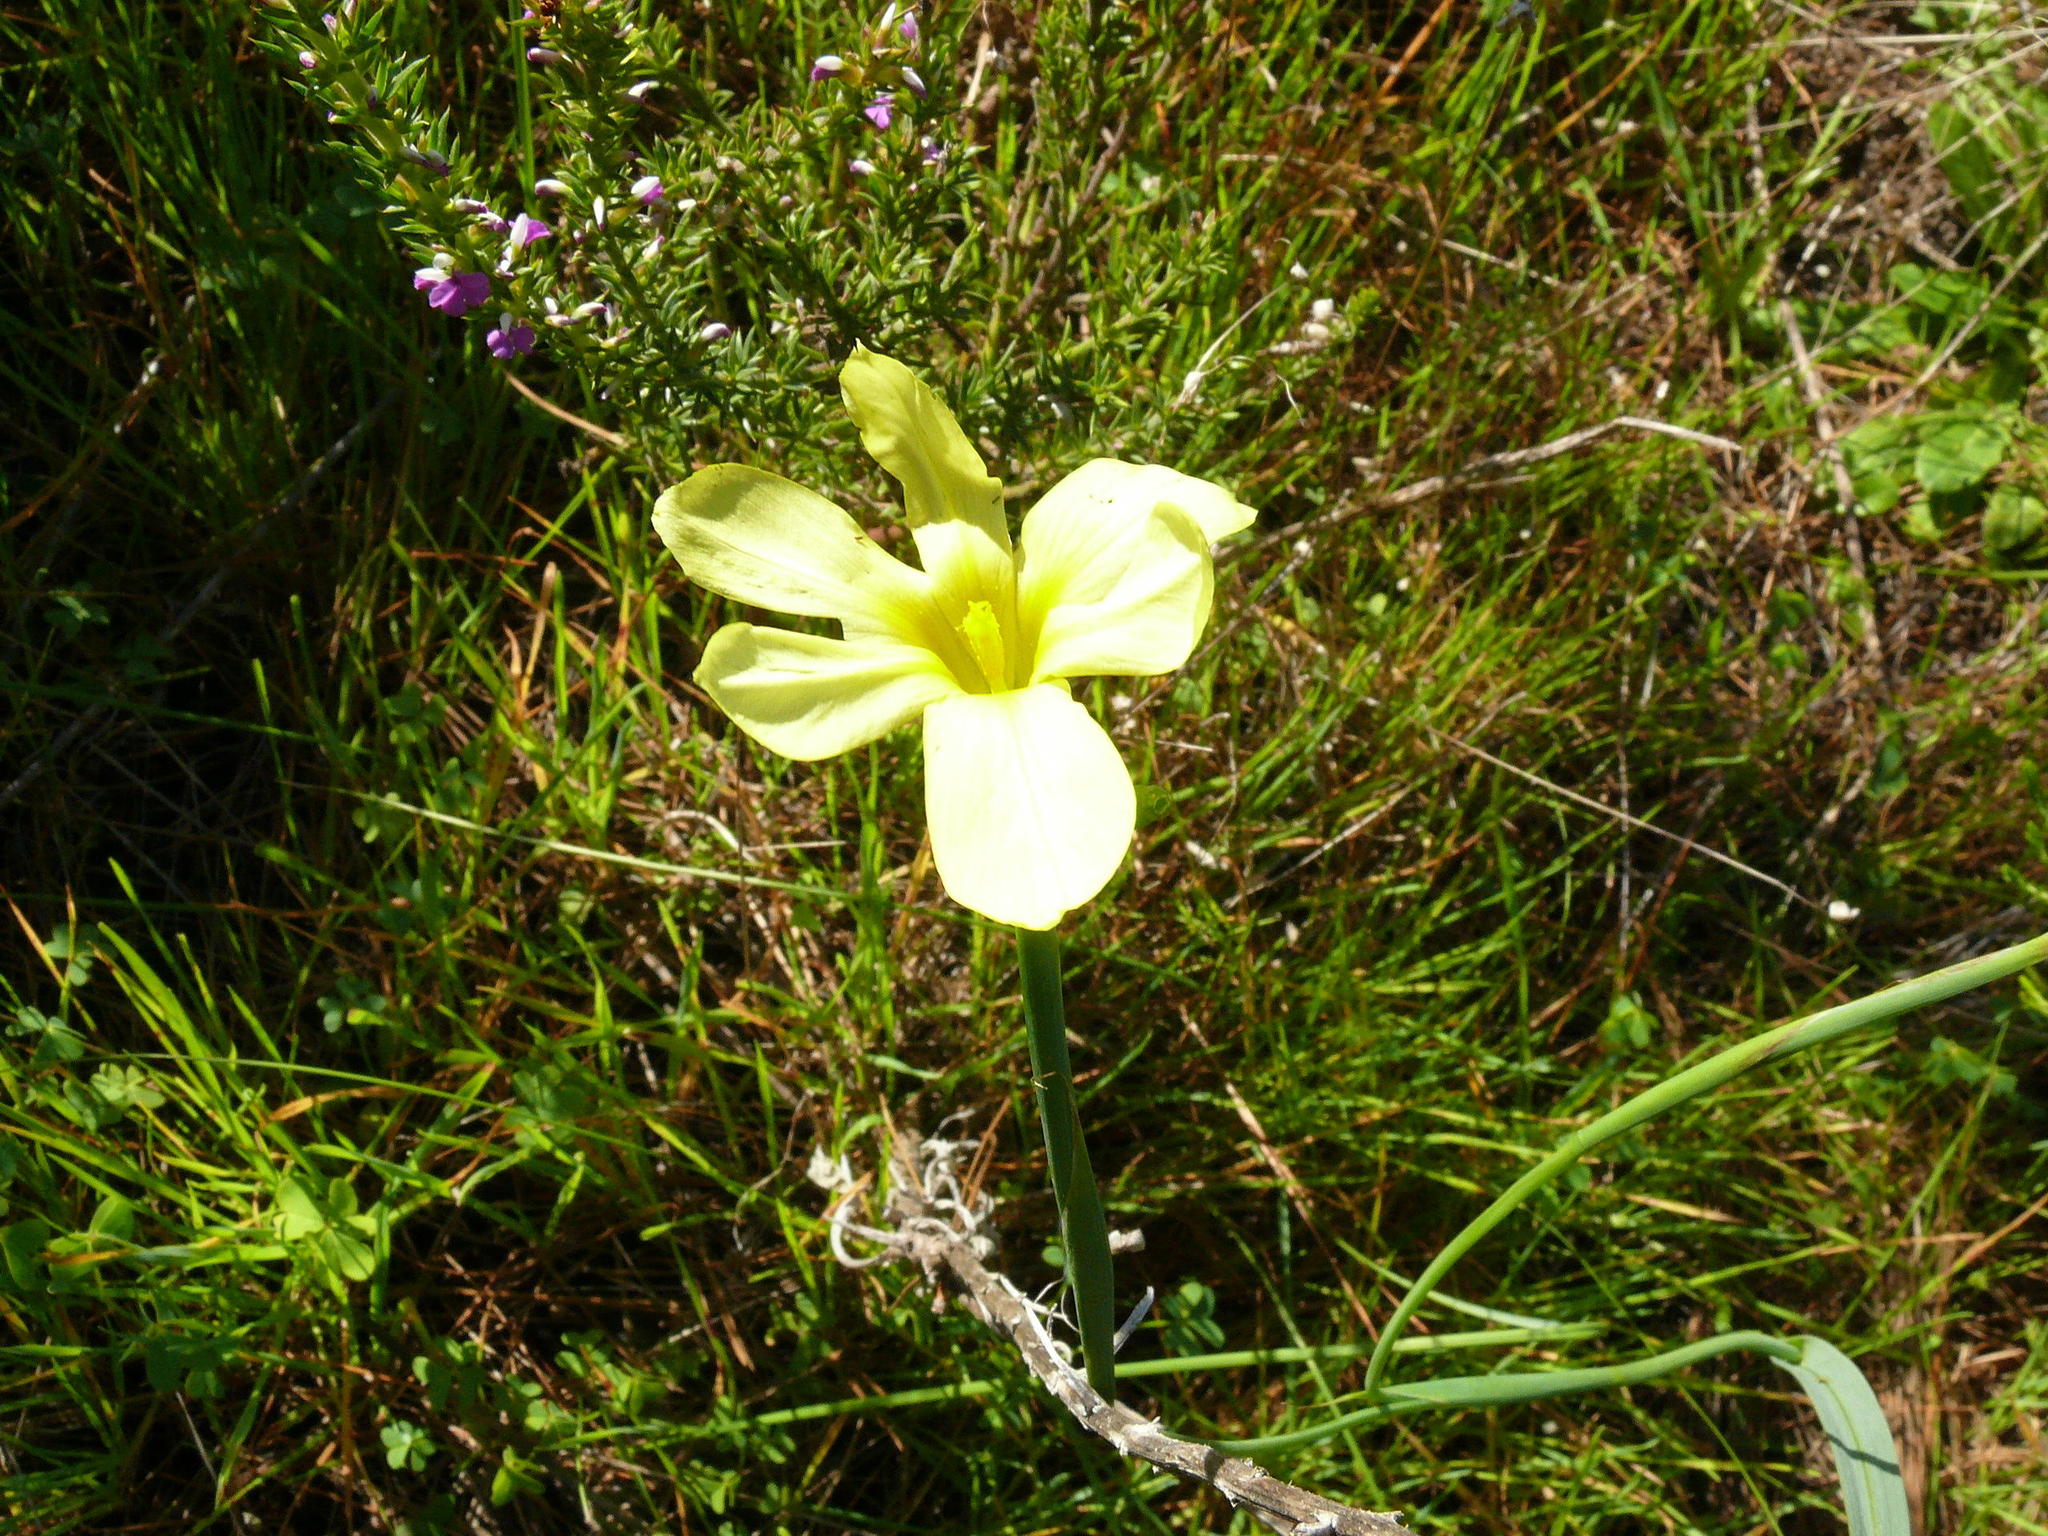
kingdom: Plantae
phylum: Tracheophyta
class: Liliopsida
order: Asparagales
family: Iridaceae
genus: Moraea
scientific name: Moraea collina
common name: Cape-tulip
